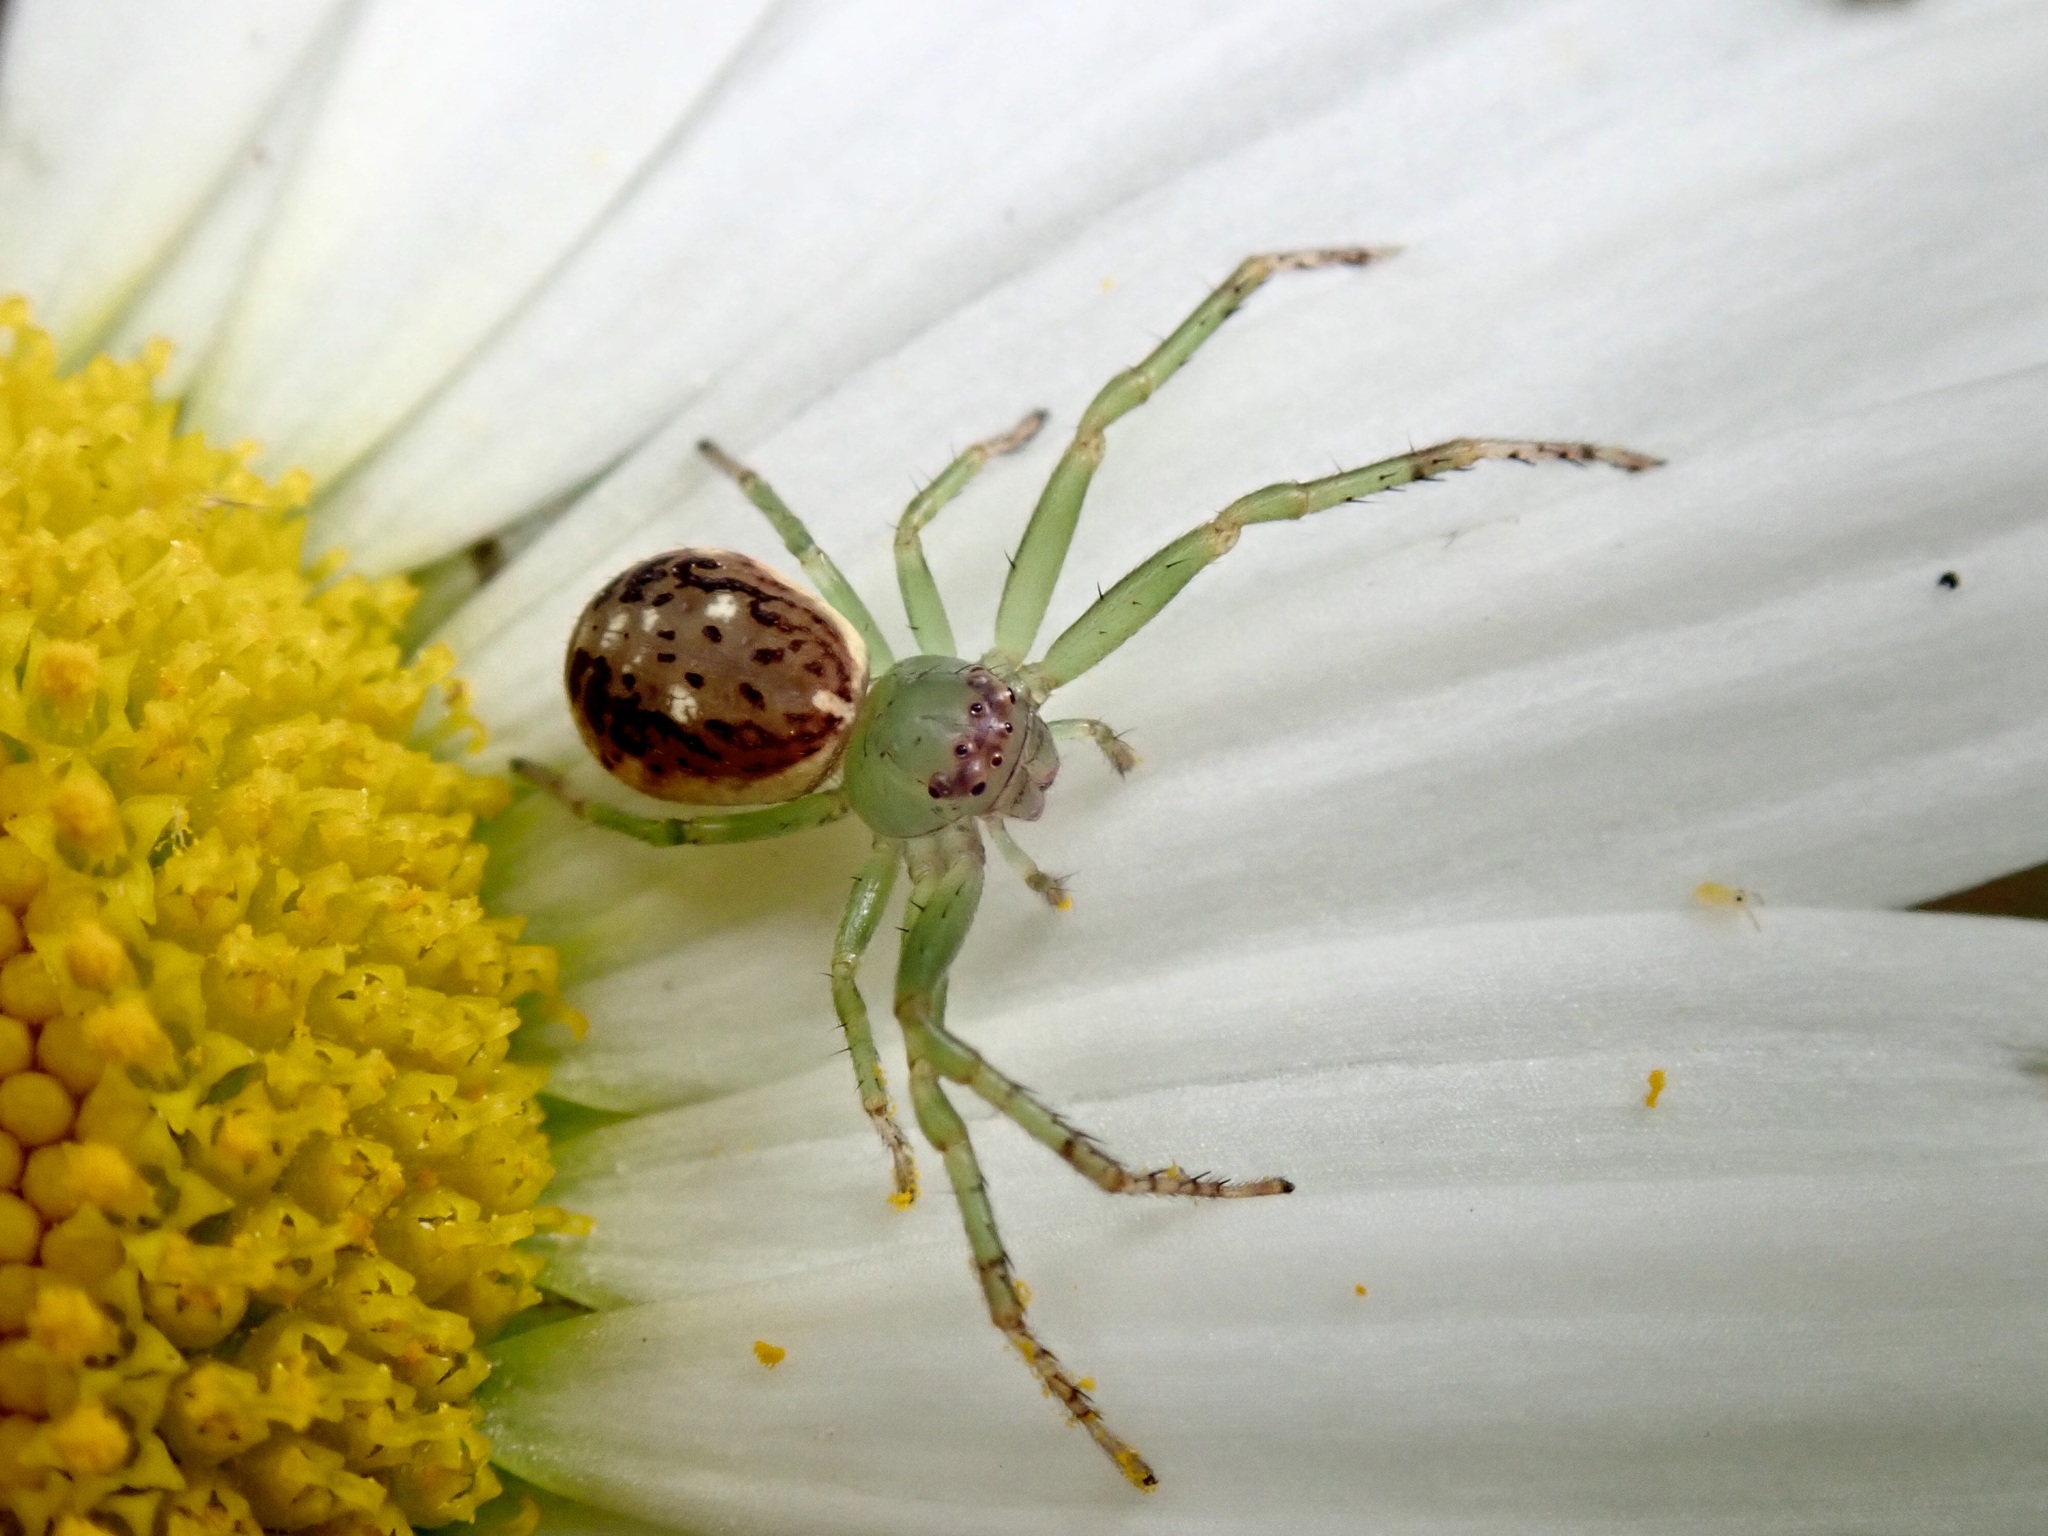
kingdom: Animalia
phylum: Arthropoda
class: Arachnida
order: Araneae
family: Thomisidae
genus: Diaea
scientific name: Diaea ambara
